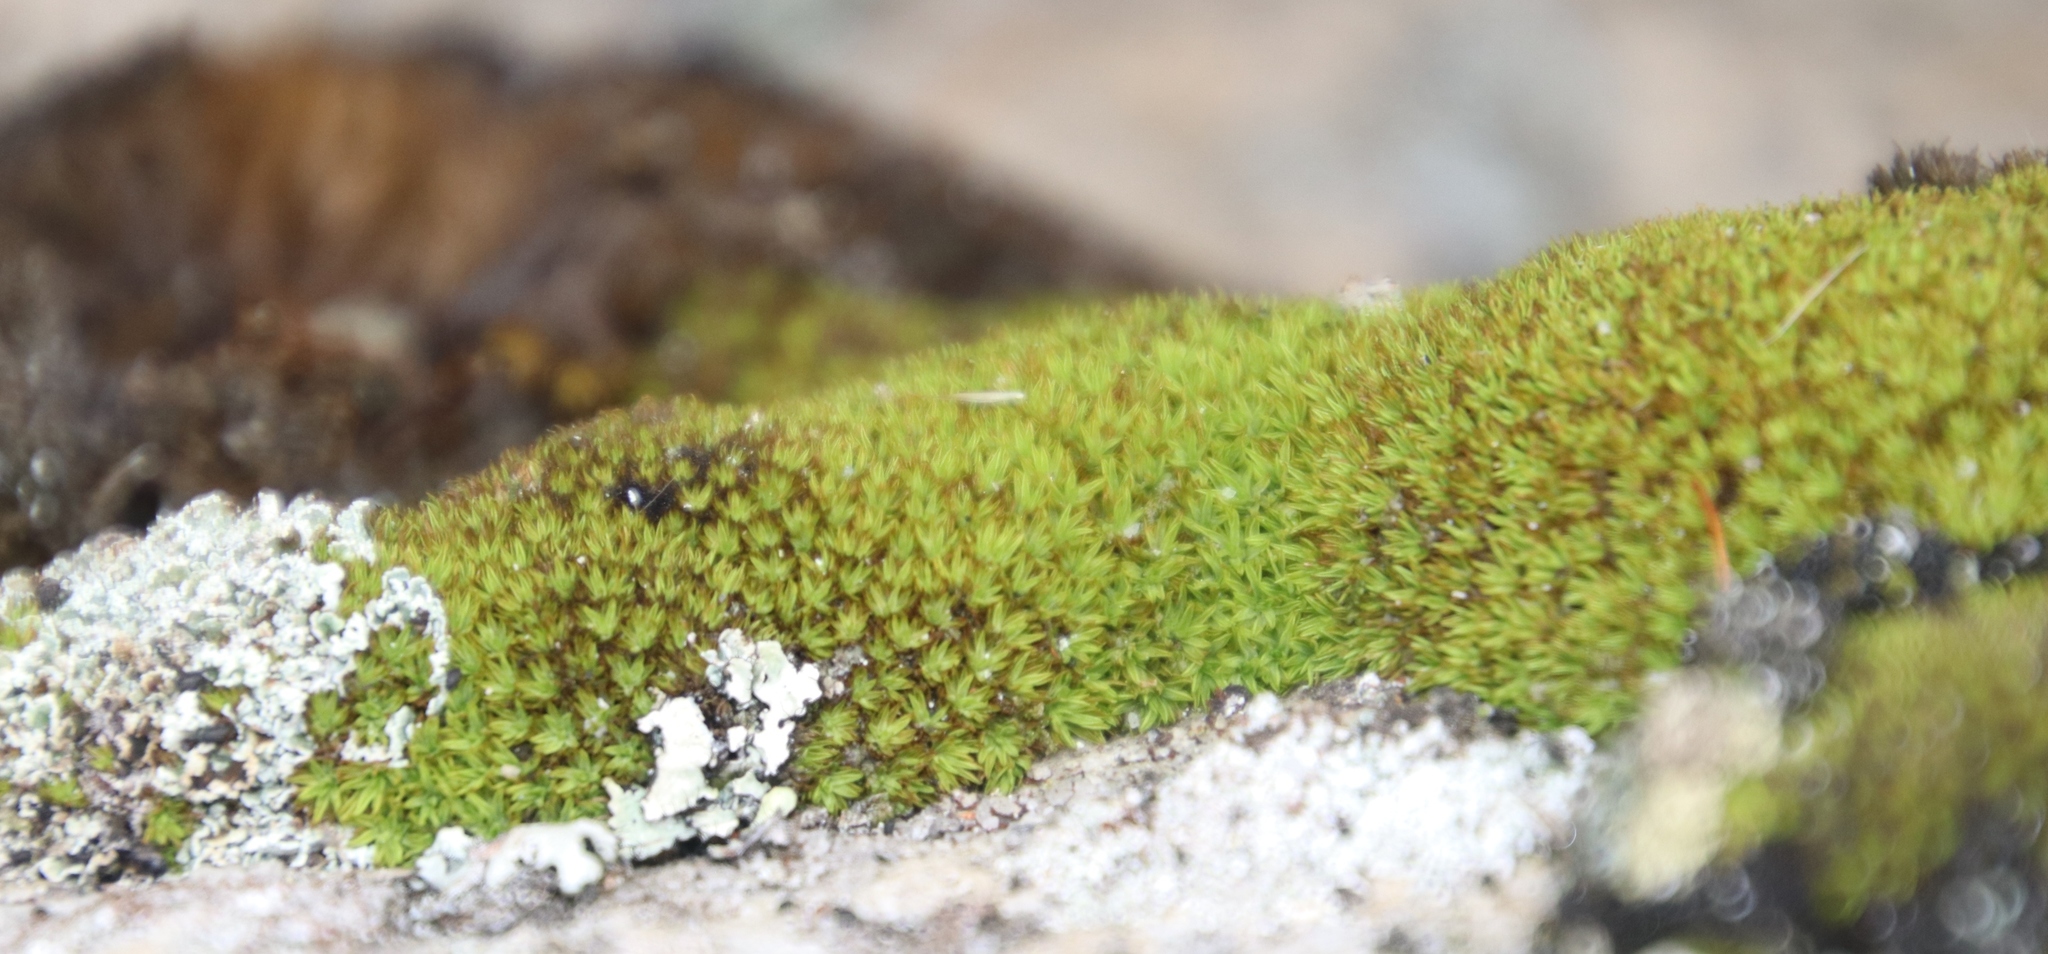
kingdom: Plantae
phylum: Bryophyta
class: Bryopsida
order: Dicranales
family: Hypodontiaceae
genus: Hypodontium
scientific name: Hypodontium pomiforme
